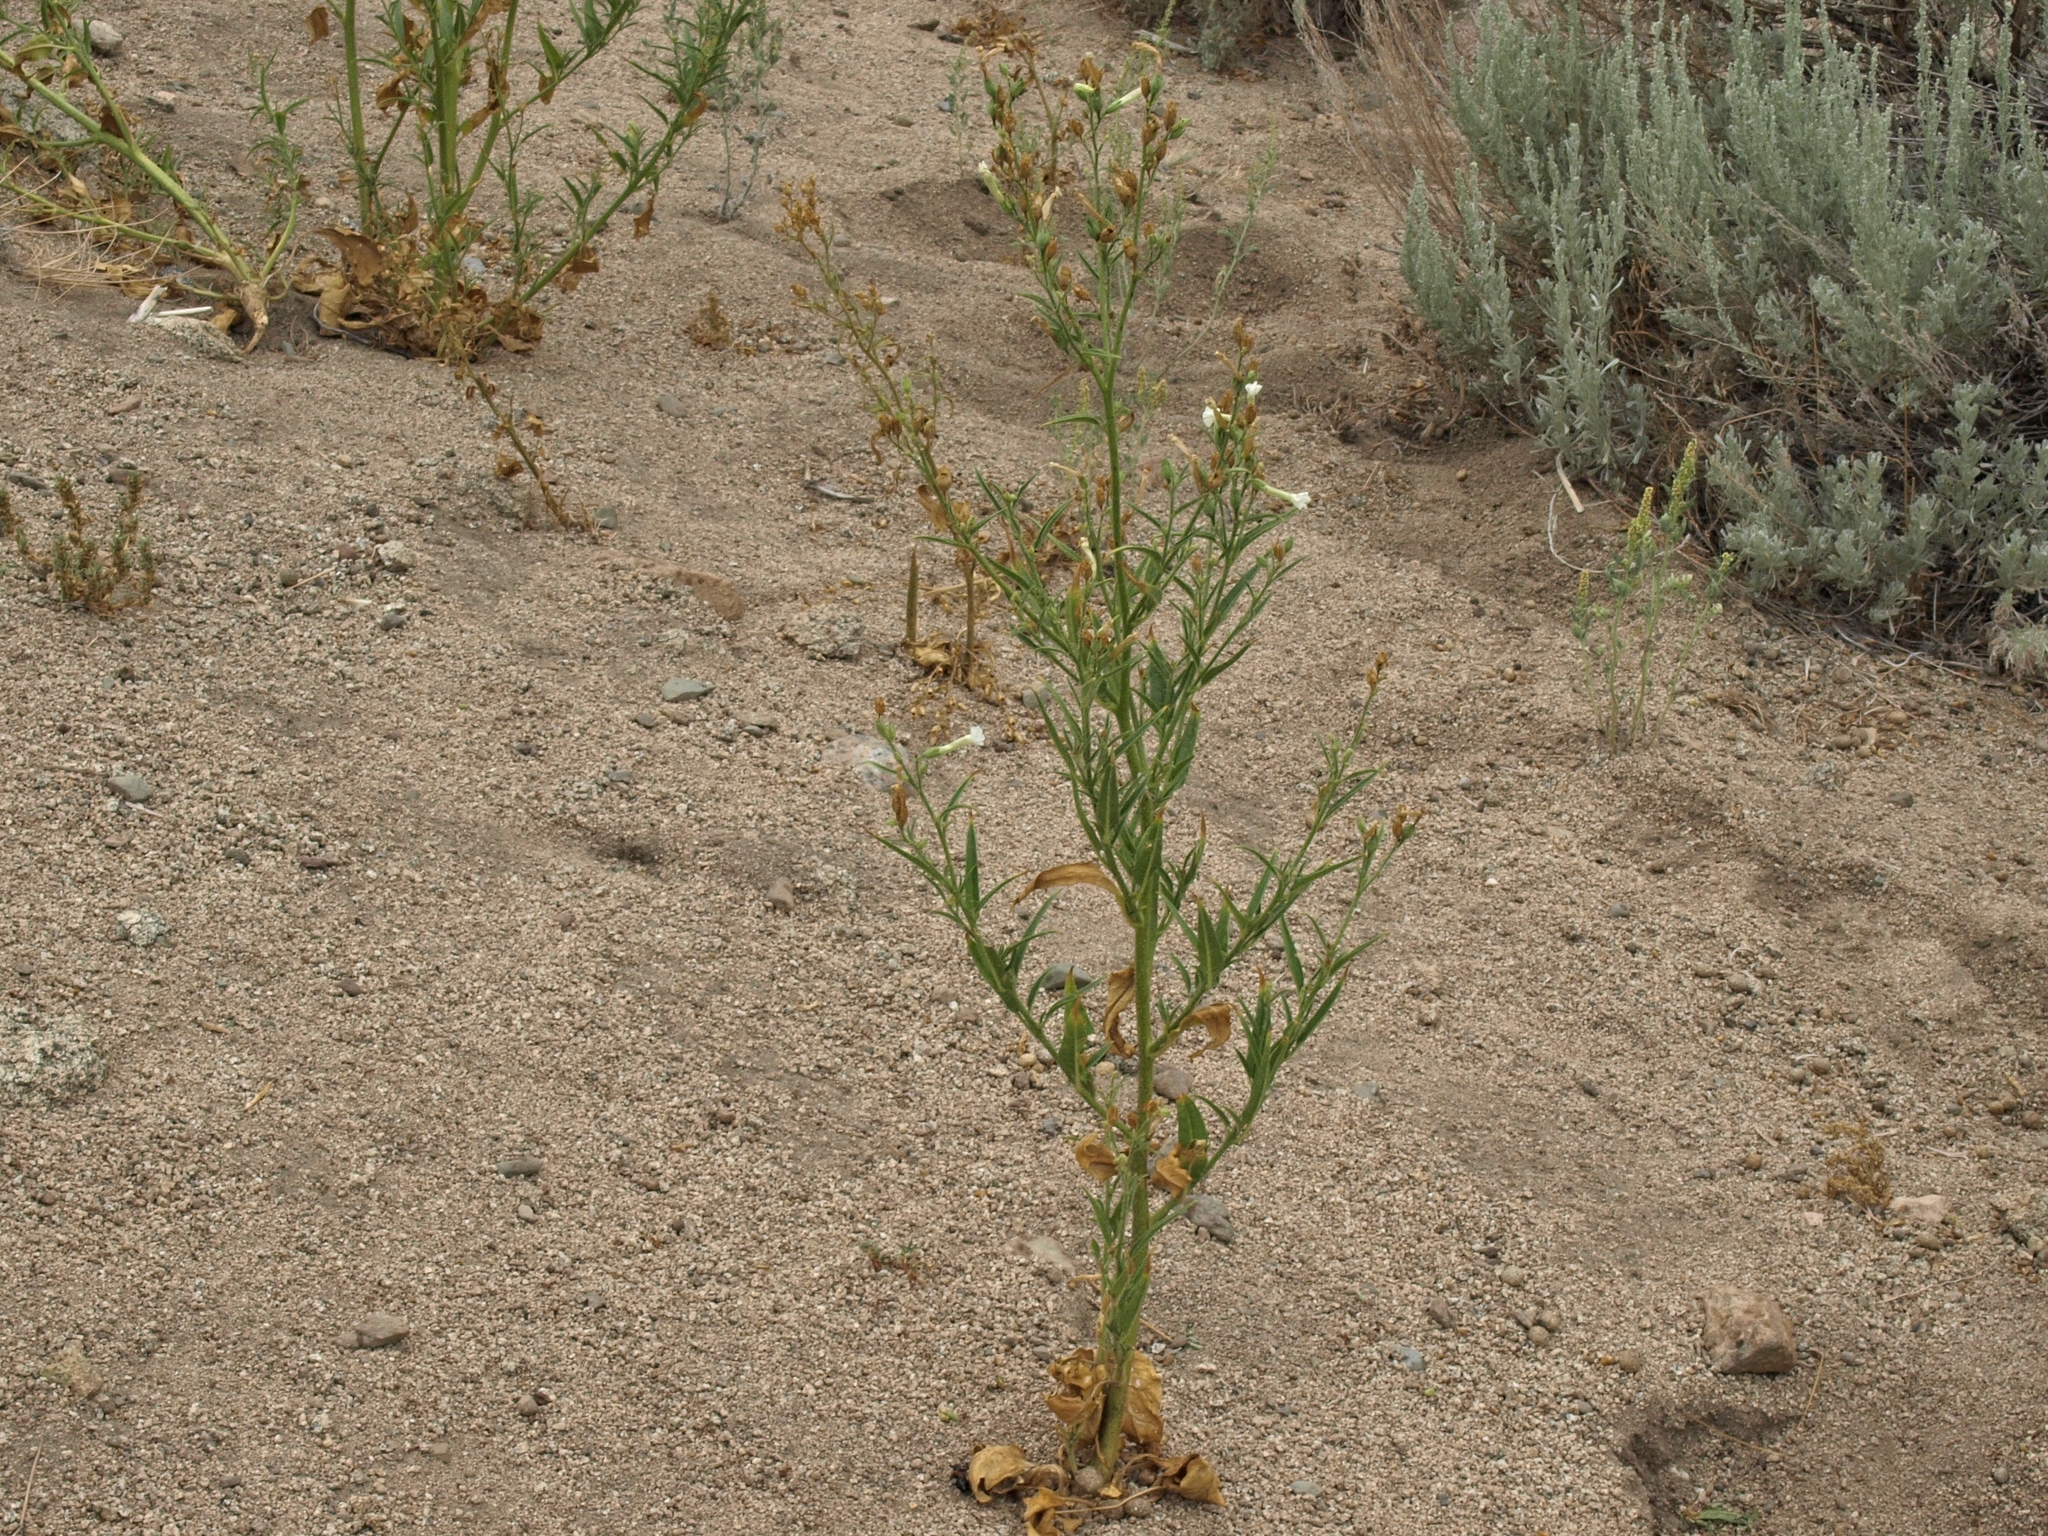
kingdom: Plantae
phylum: Tracheophyta
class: Magnoliopsida
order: Solanales
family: Solanaceae
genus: Nicotiana
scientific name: Nicotiana attenuata
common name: Coyote tobacco
